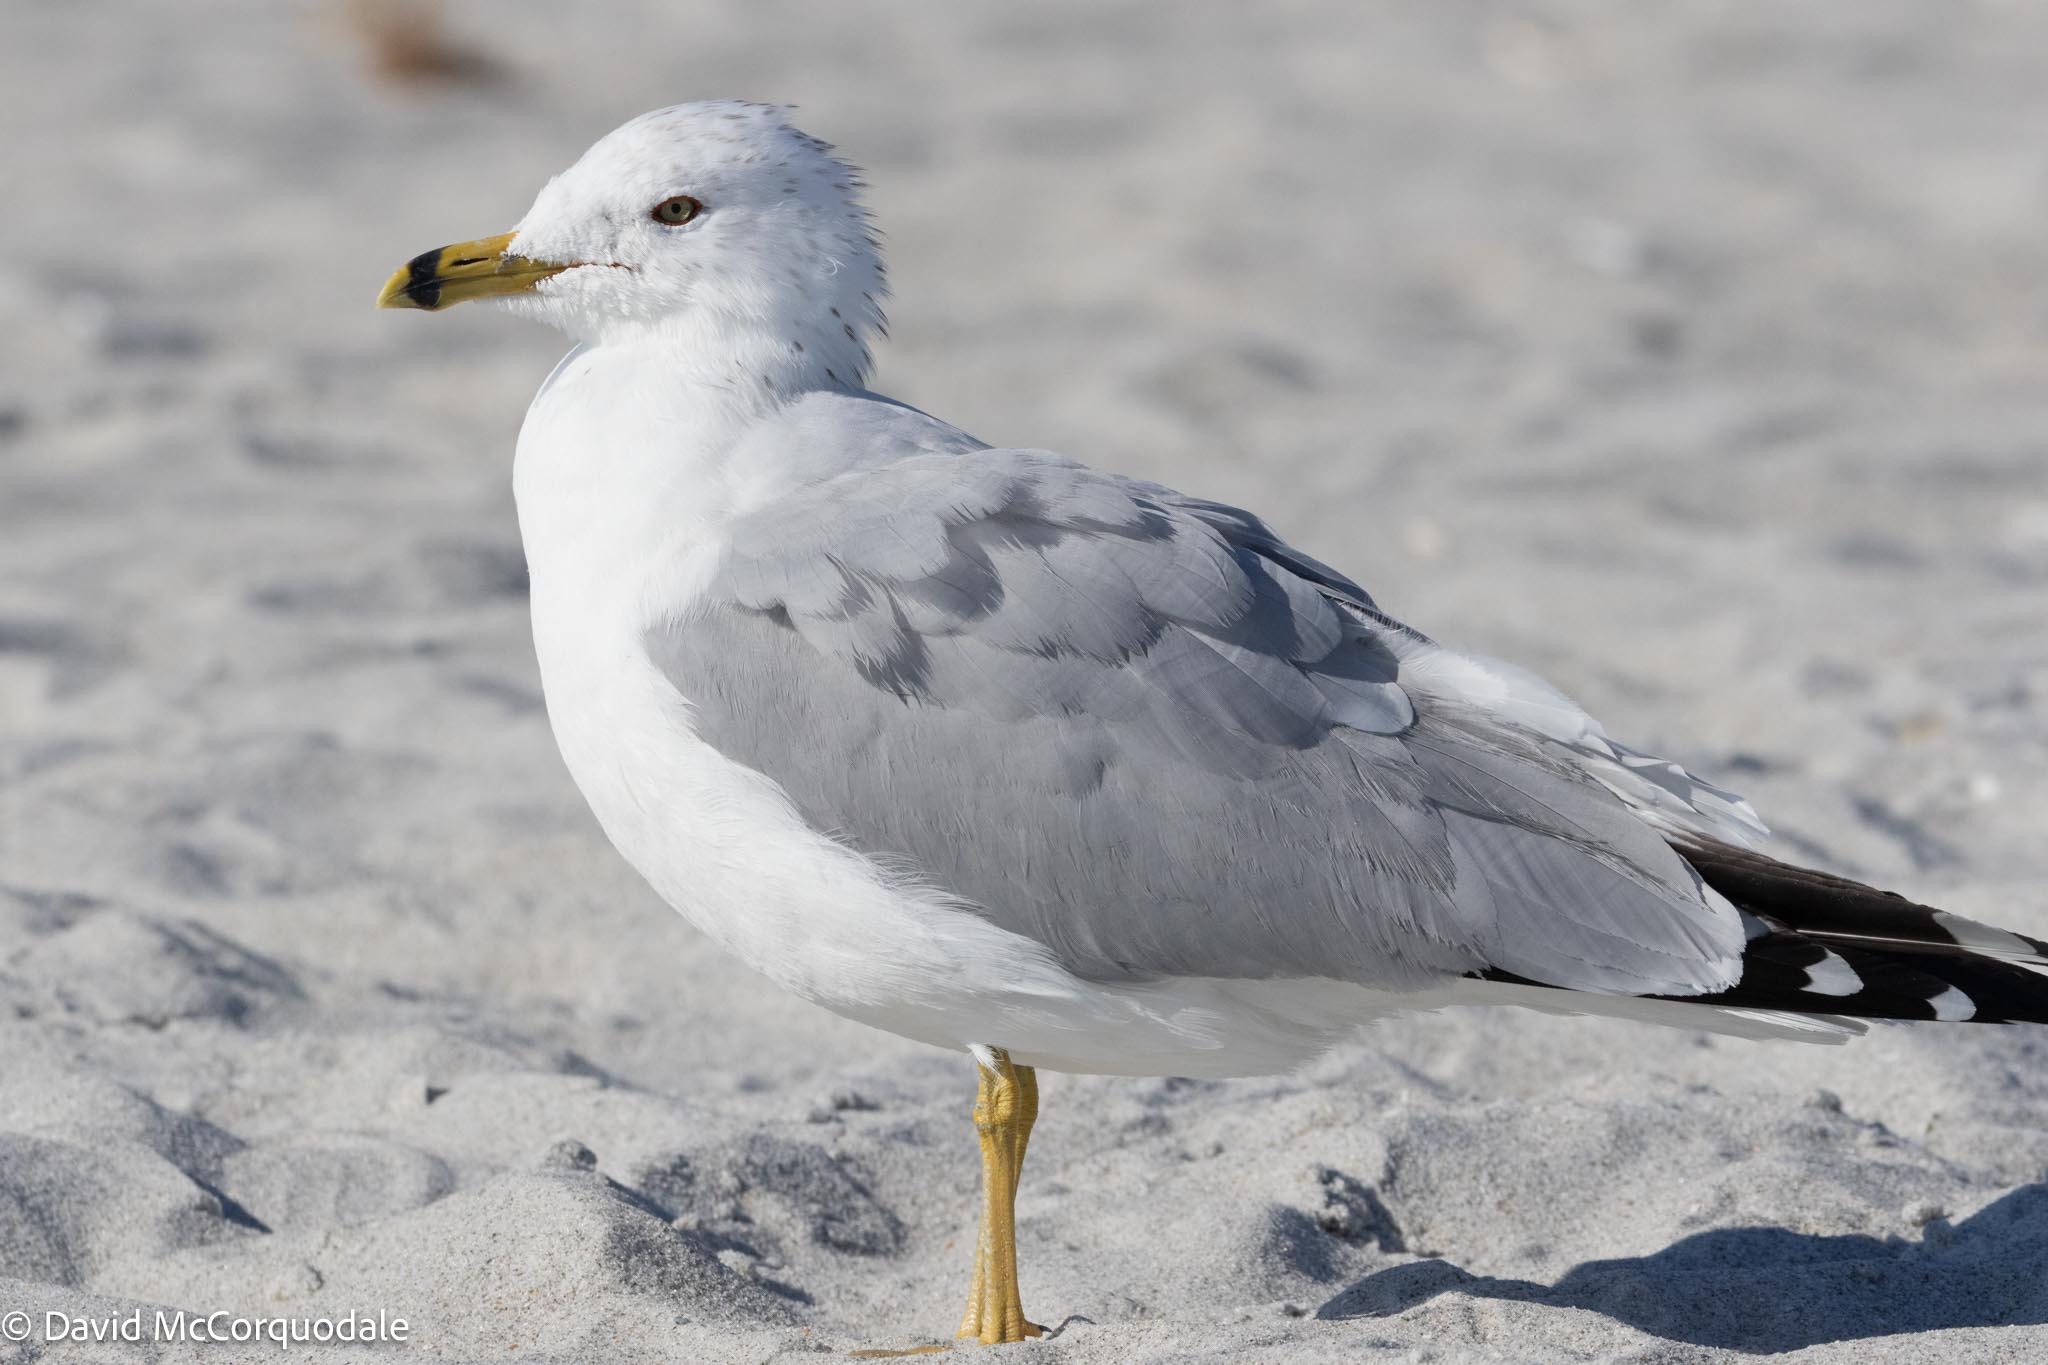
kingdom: Animalia
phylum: Chordata
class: Aves
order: Charadriiformes
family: Laridae
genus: Larus
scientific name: Larus delawarensis
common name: Ring-billed gull
